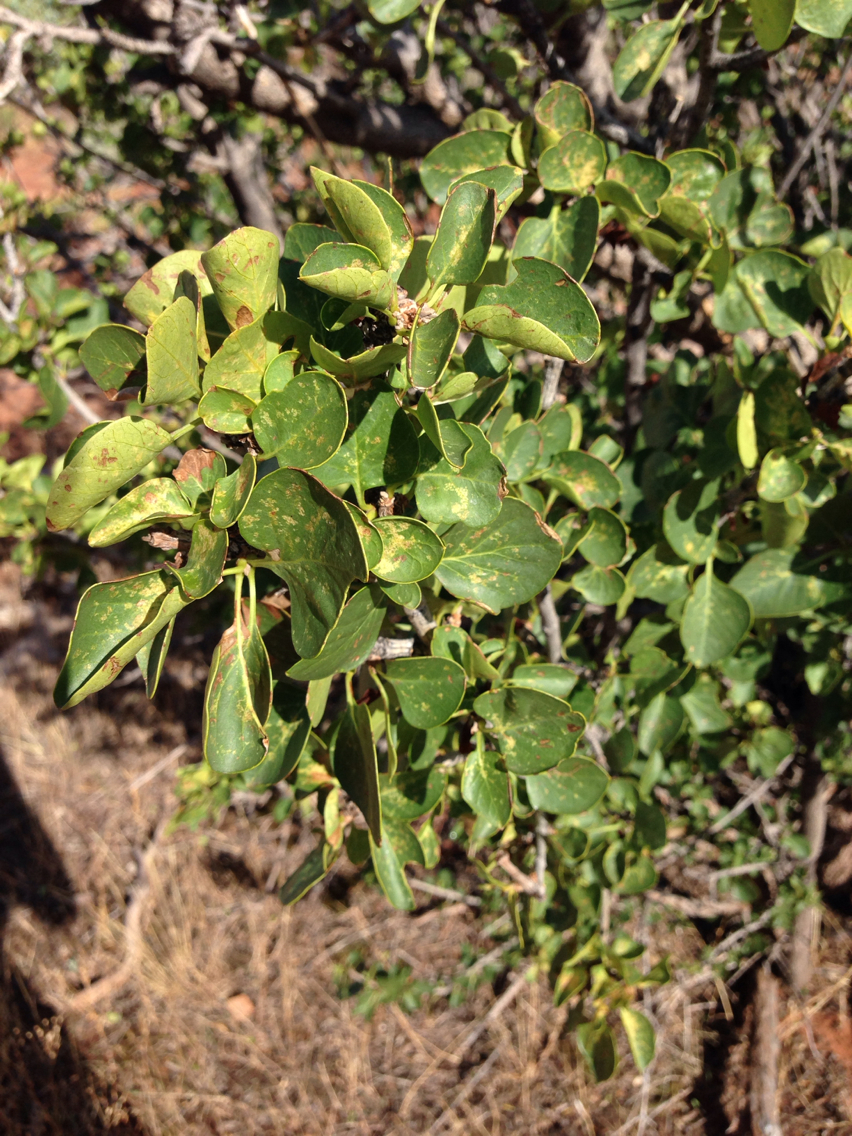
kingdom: Plantae
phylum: Tracheophyta
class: Magnoliopsida
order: Lamiales
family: Oleaceae
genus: Fraxinus
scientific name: Fraxinus anomala
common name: Utah ash
